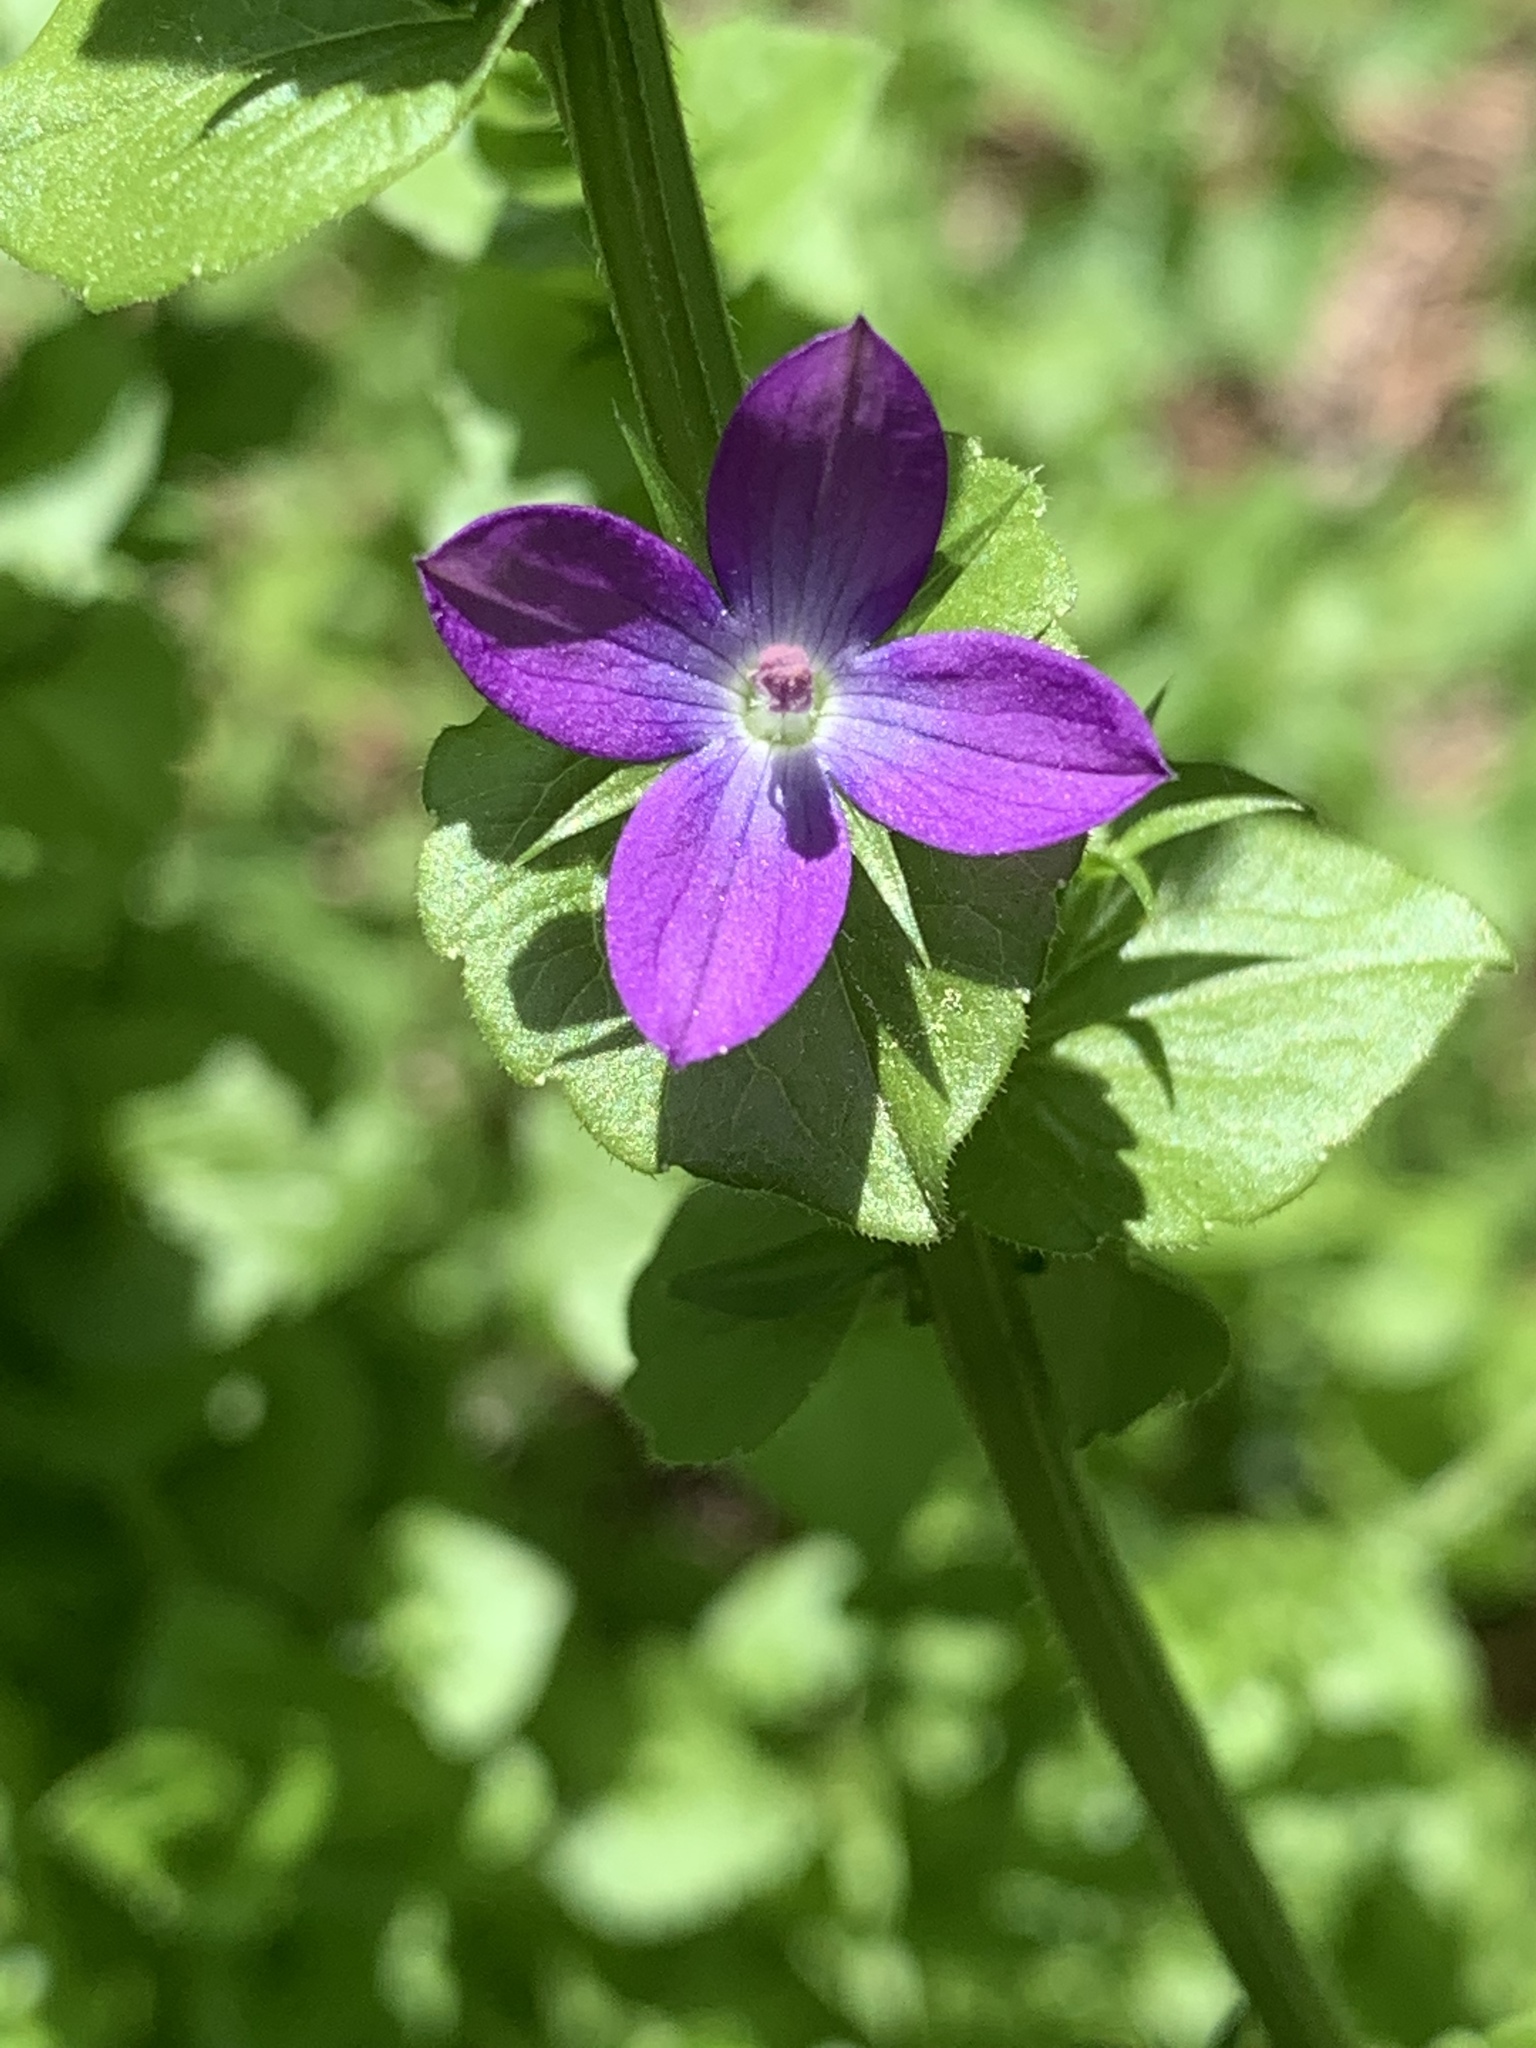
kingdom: Plantae
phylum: Tracheophyta
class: Magnoliopsida
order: Asterales
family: Campanulaceae
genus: Triodanis
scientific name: Triodanis perfoliata
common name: Clasping venus' looking-glass
